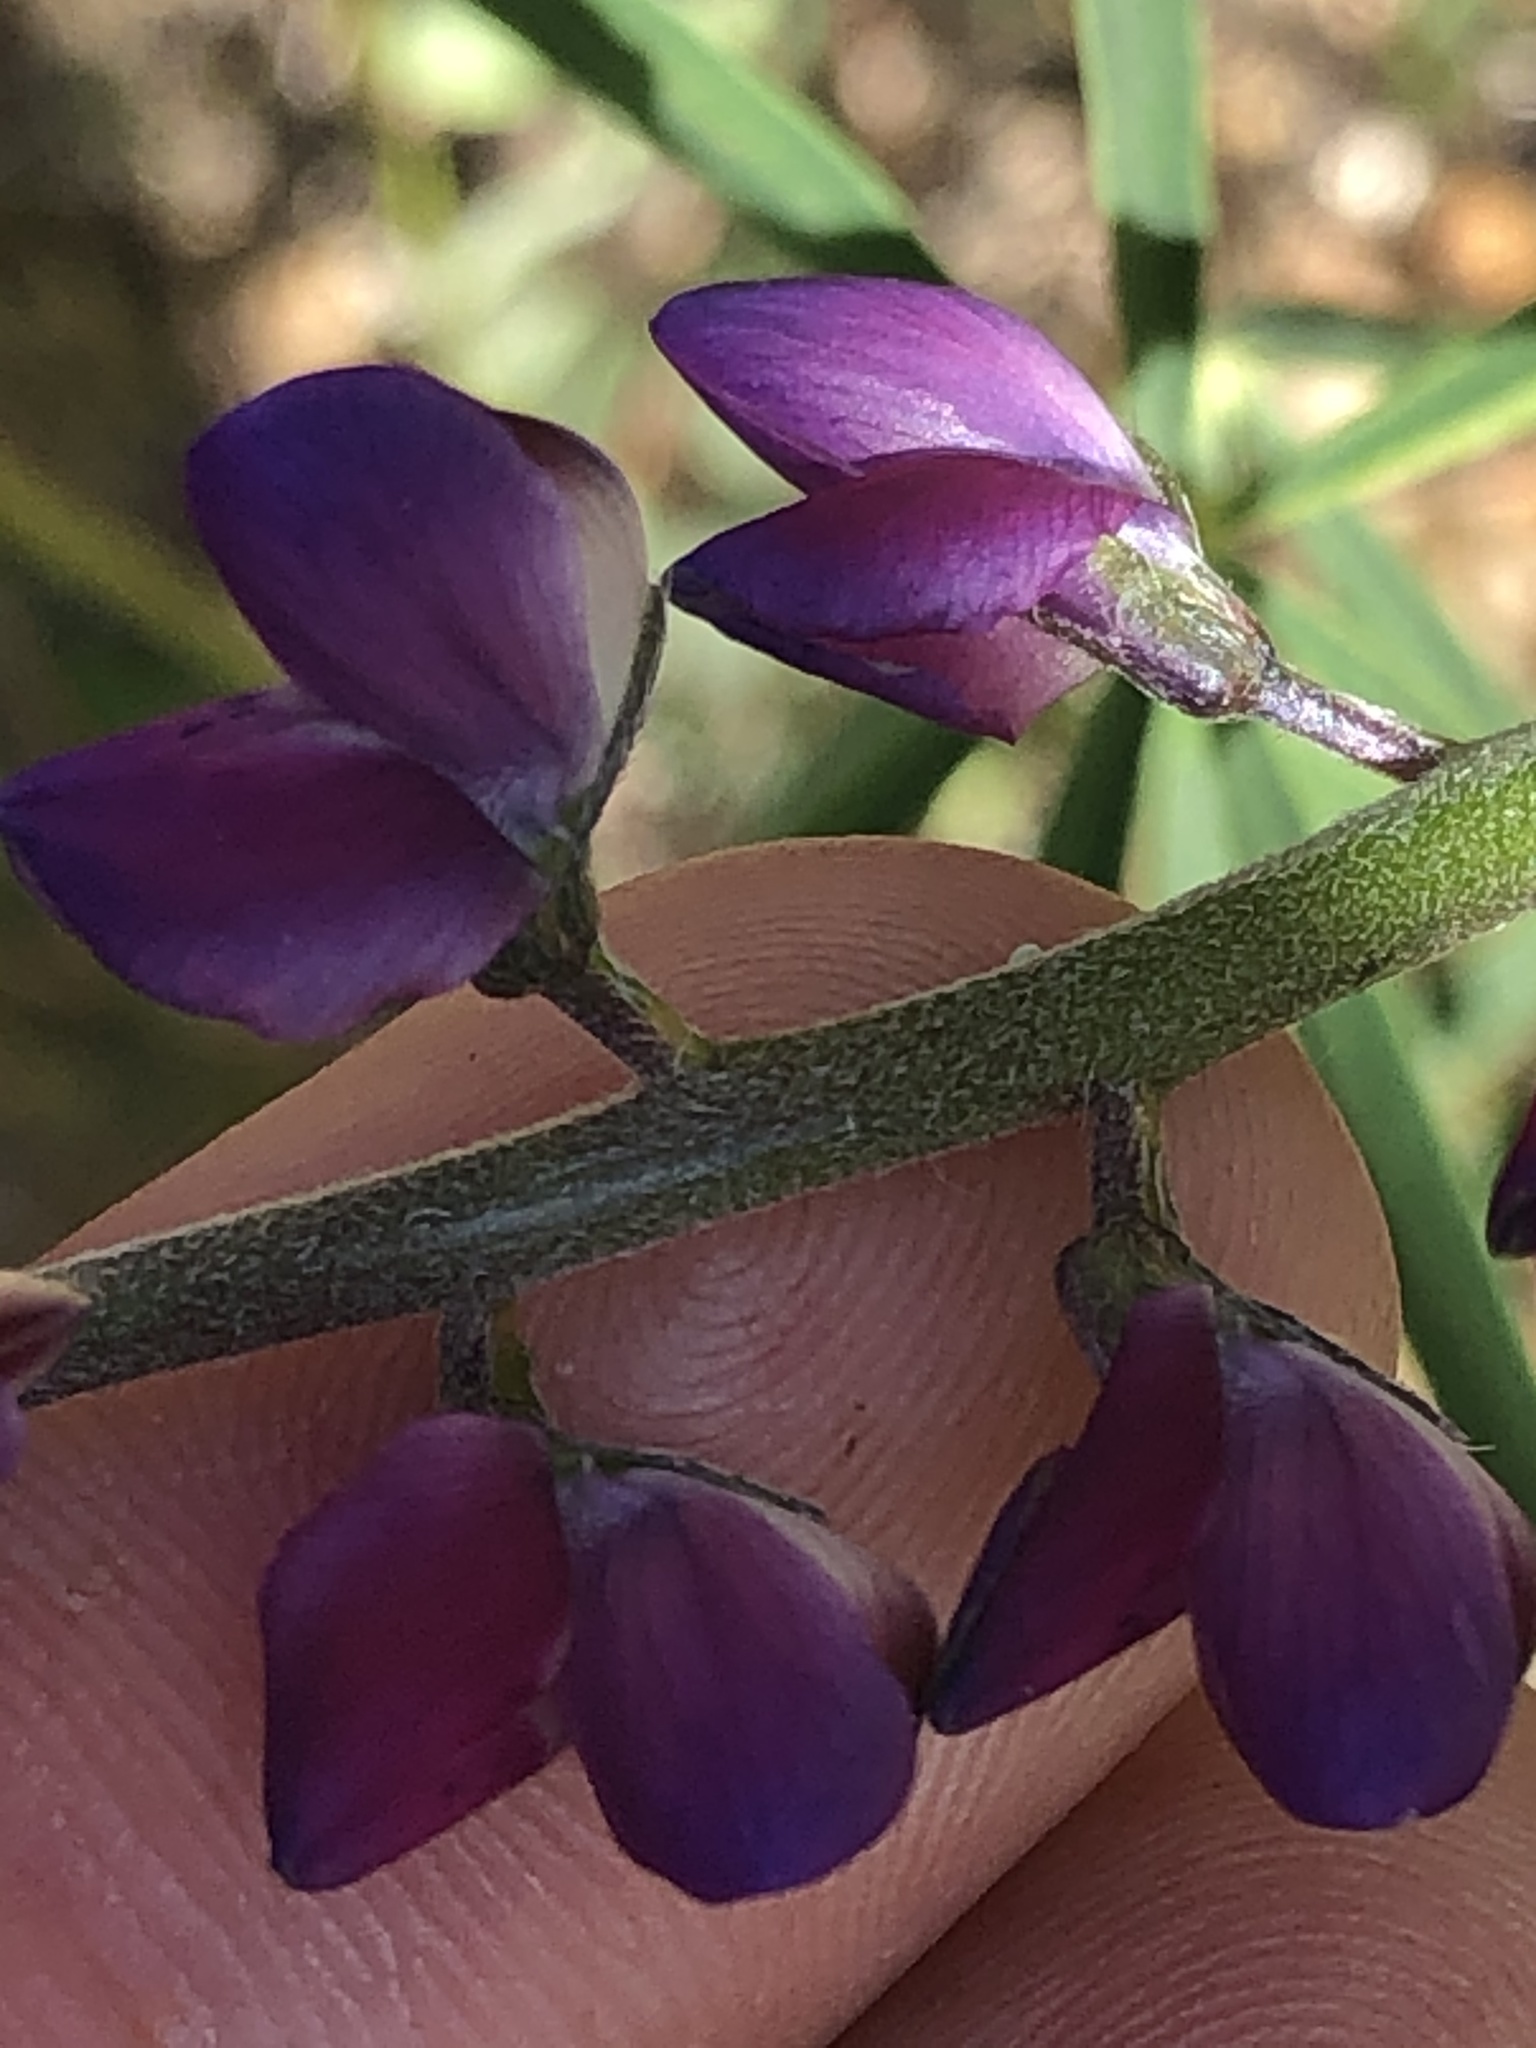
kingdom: Plantae
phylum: Tracheophyta
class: Magnoliopsida
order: Fabales
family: Fabaceae
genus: Lupinus
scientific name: Lupinus truncatus
